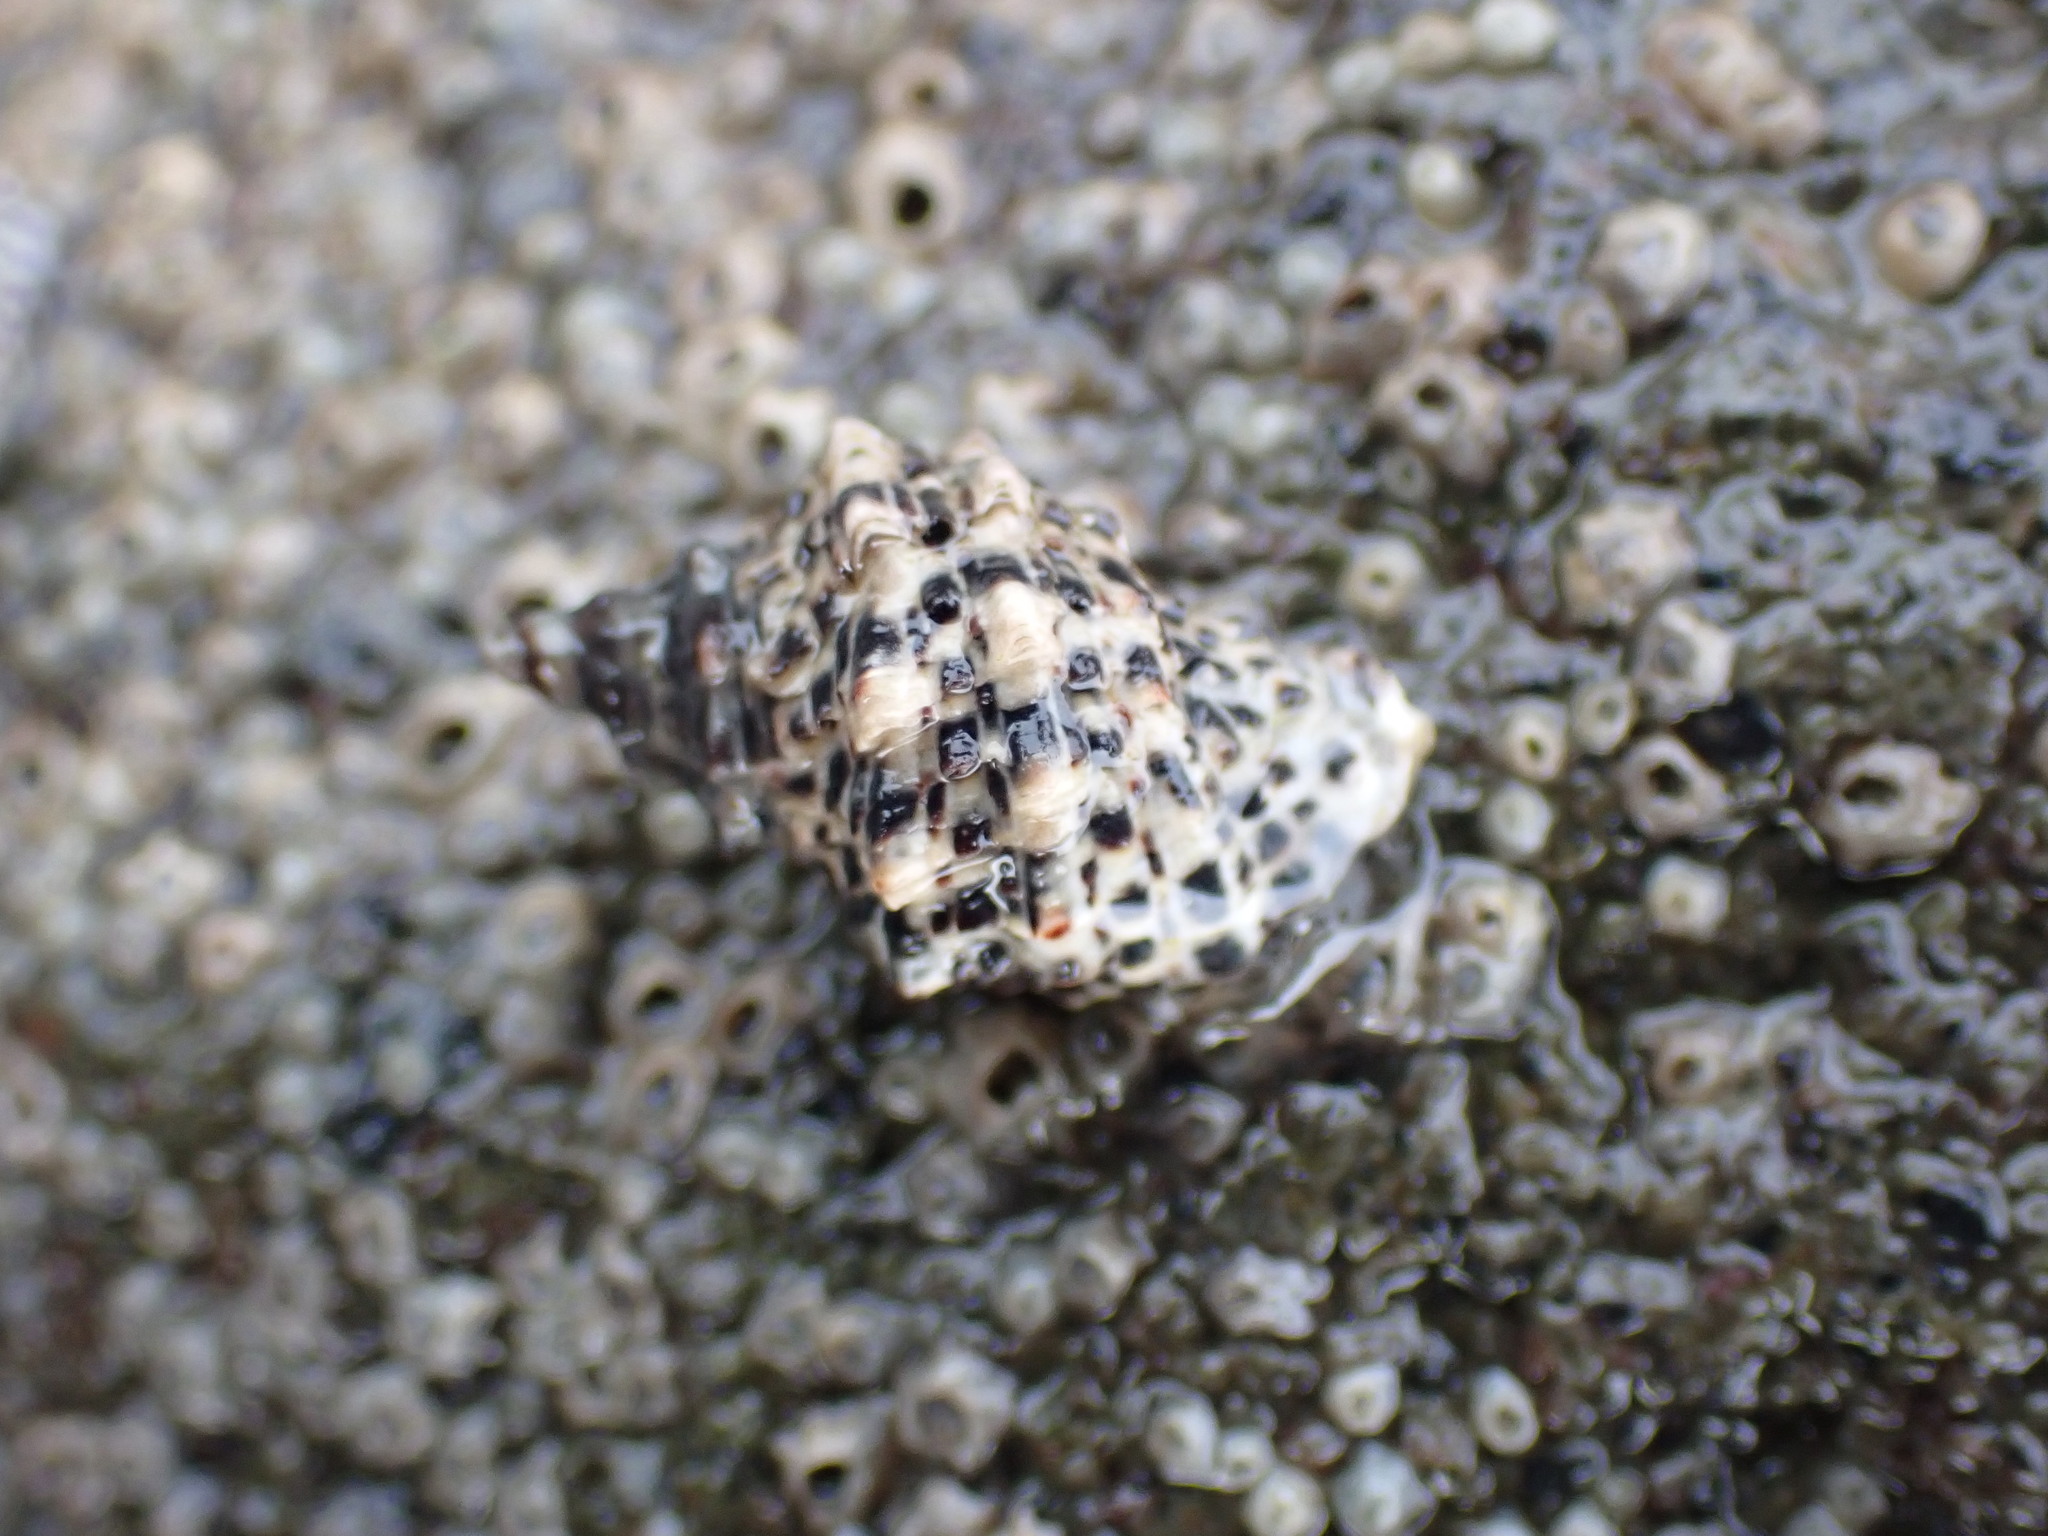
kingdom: Animalia
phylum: Mollusca
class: Gastropoda
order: Neogastropoda
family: Muricidae
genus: Haustrum
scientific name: Haustrum scobina
